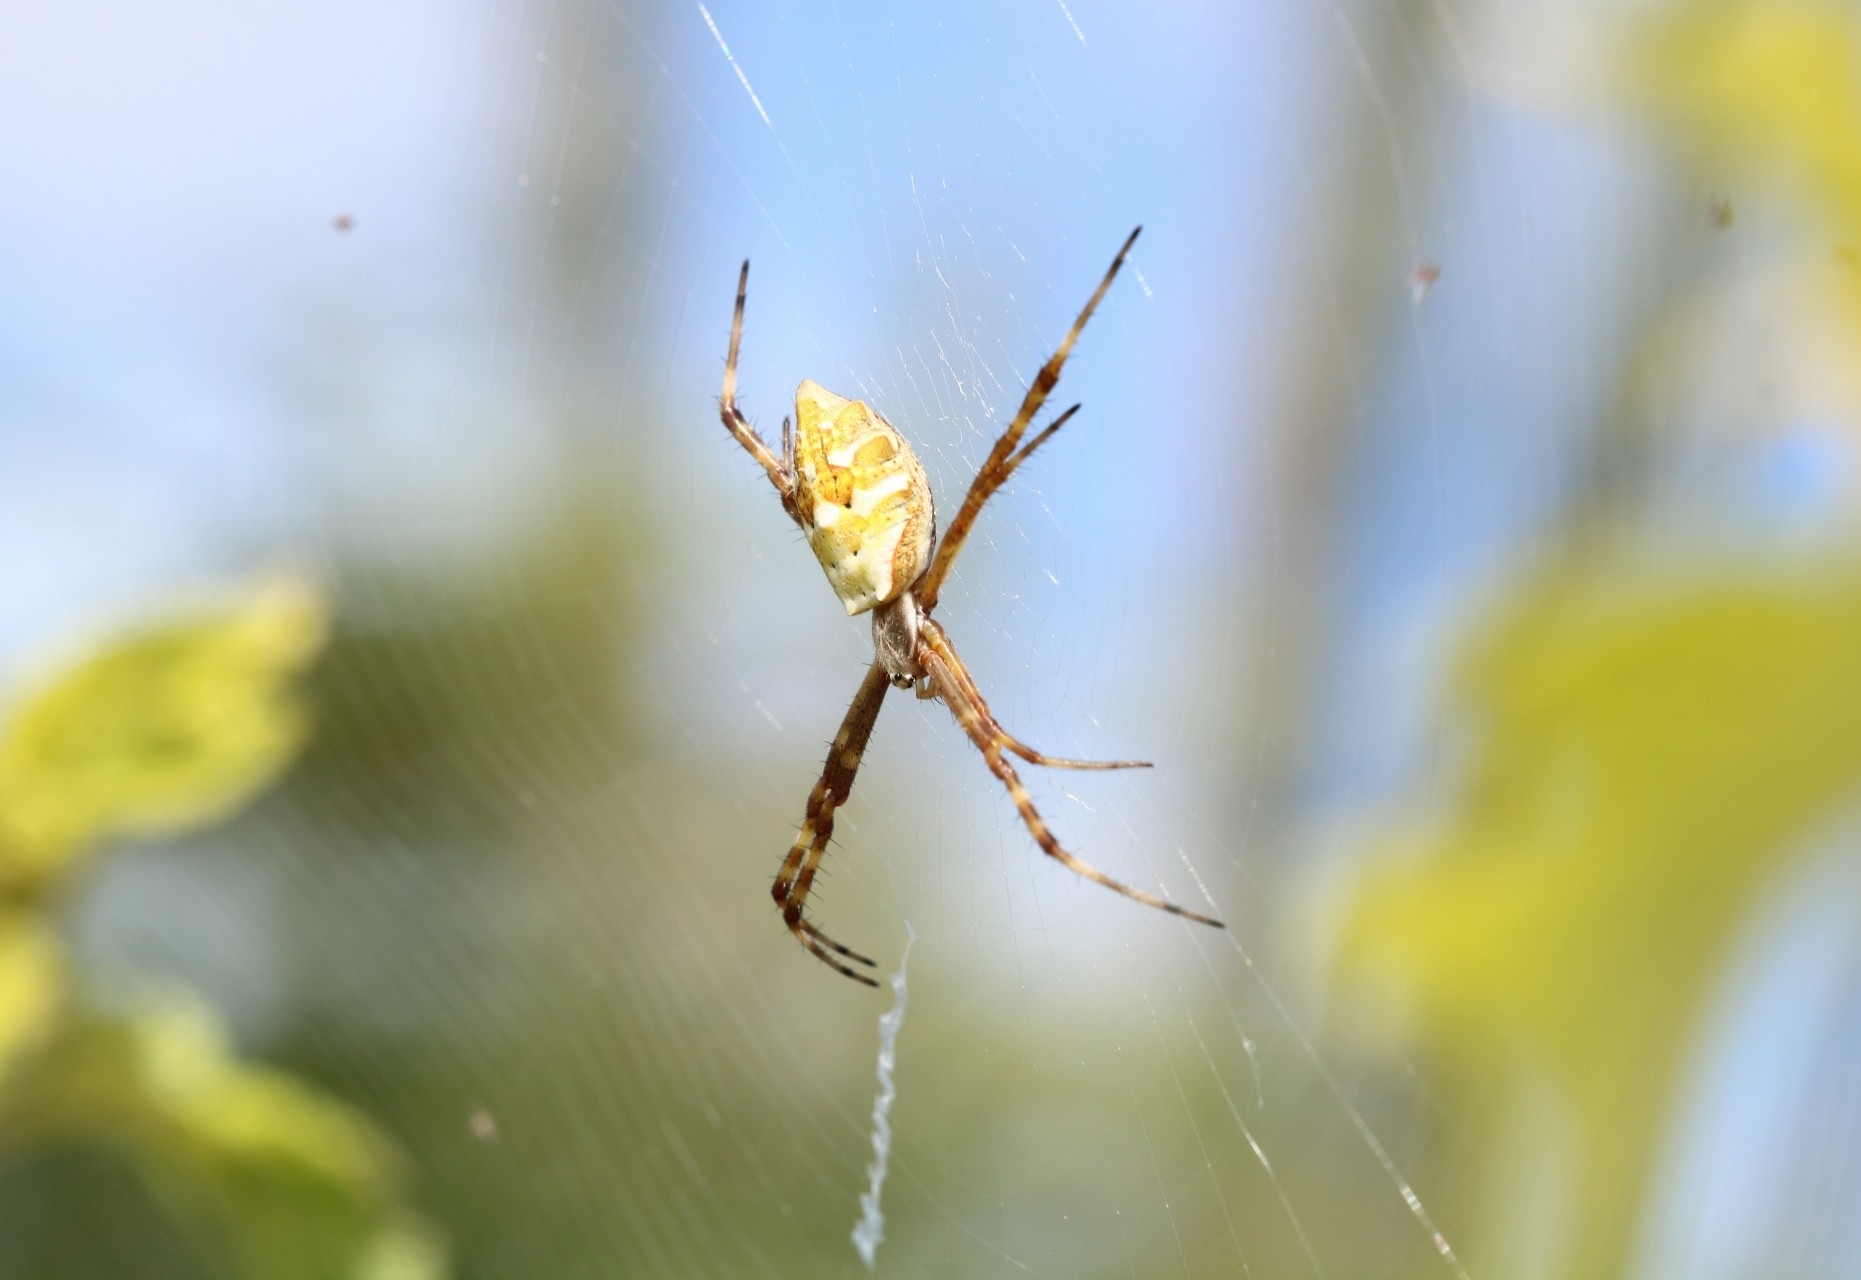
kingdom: Animalia
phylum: Arthropoda
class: Arachnida
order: Araneae
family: Araneidae
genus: Argiope
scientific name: Argiope argentata
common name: Orb weavers
